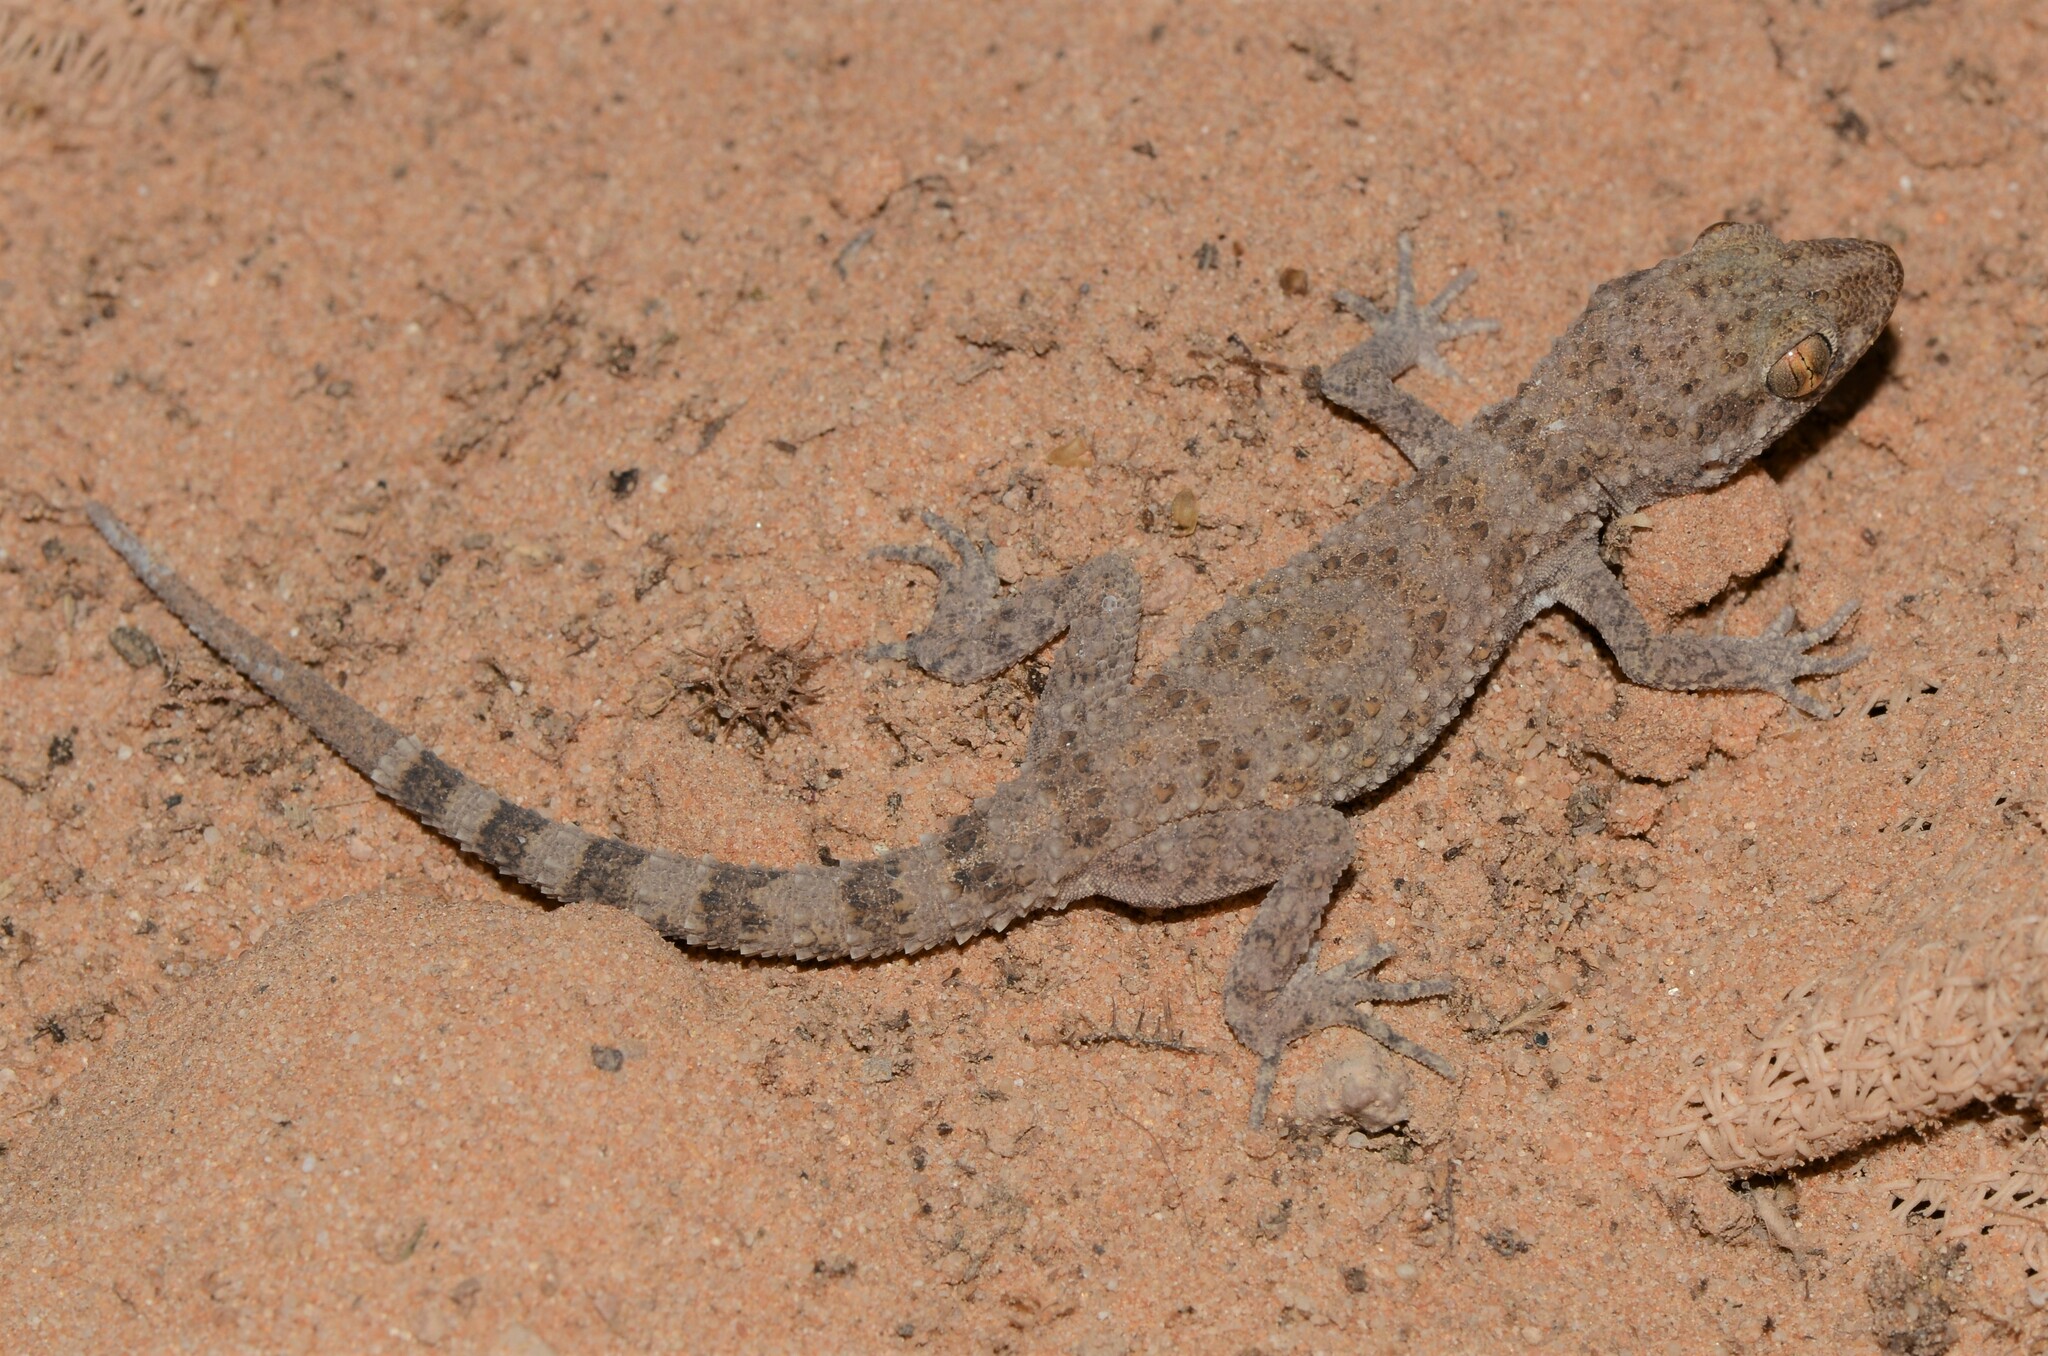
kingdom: Animalia
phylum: Chordata
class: Squamata
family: Gekkonidae
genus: Bunopus
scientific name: Bunopus tuberculatus
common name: Southern tuberculated gecko
